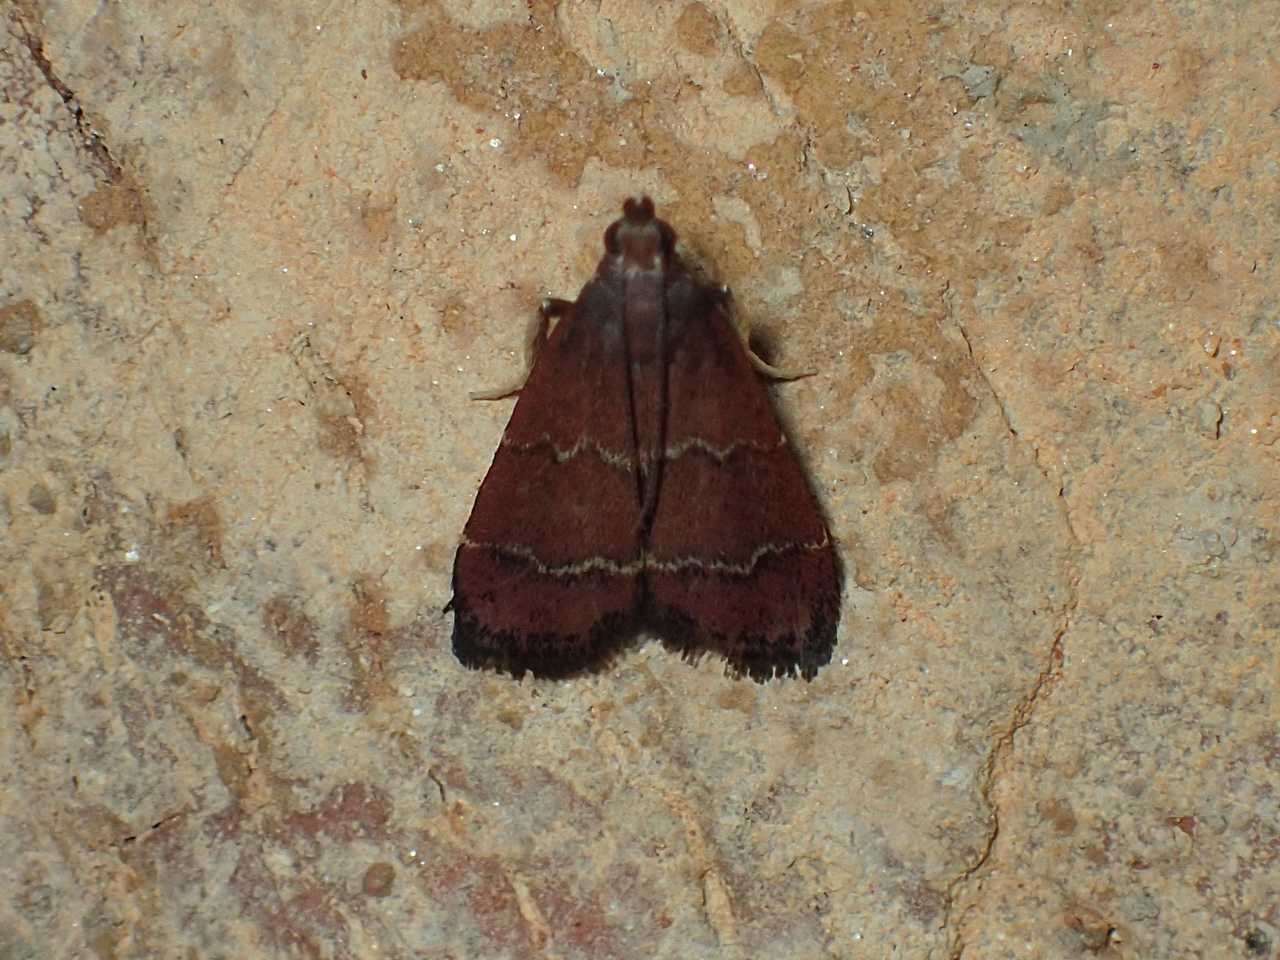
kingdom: Animalia
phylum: Arthropoda
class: Insecta
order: Lepidoptera
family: Pyralidae
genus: Arta
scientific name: Arta
